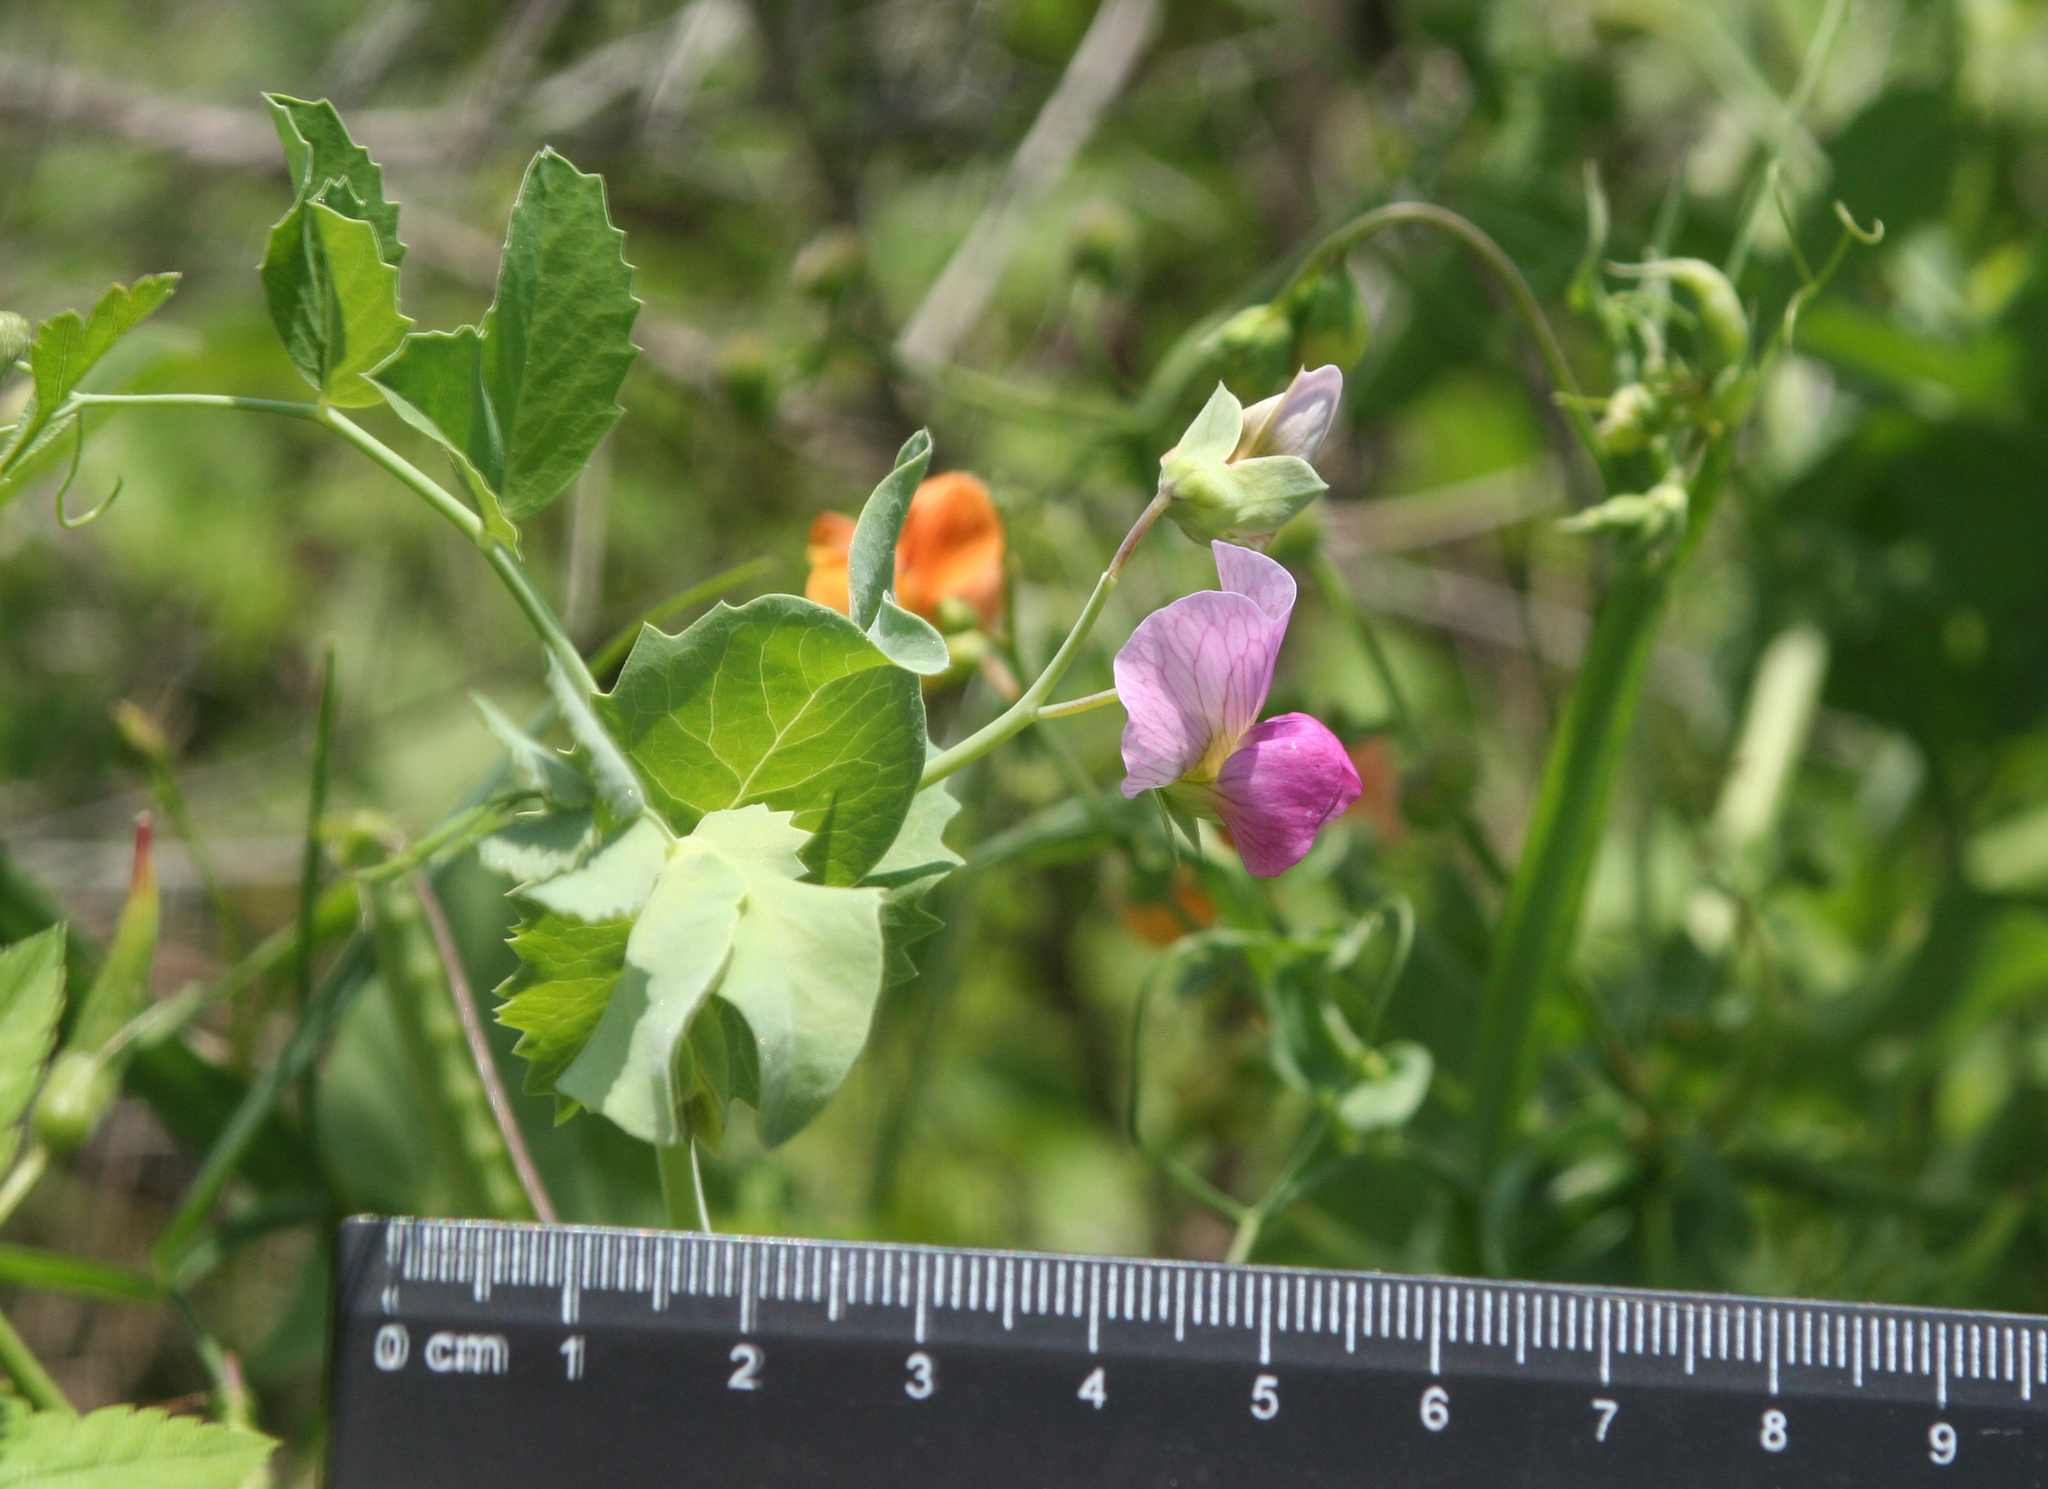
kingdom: Plantae
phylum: Tracheophyta
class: Magnoliopsida
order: Fabales
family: Fabaceae
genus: Lathyrus
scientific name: Lathyrus oleraceus
